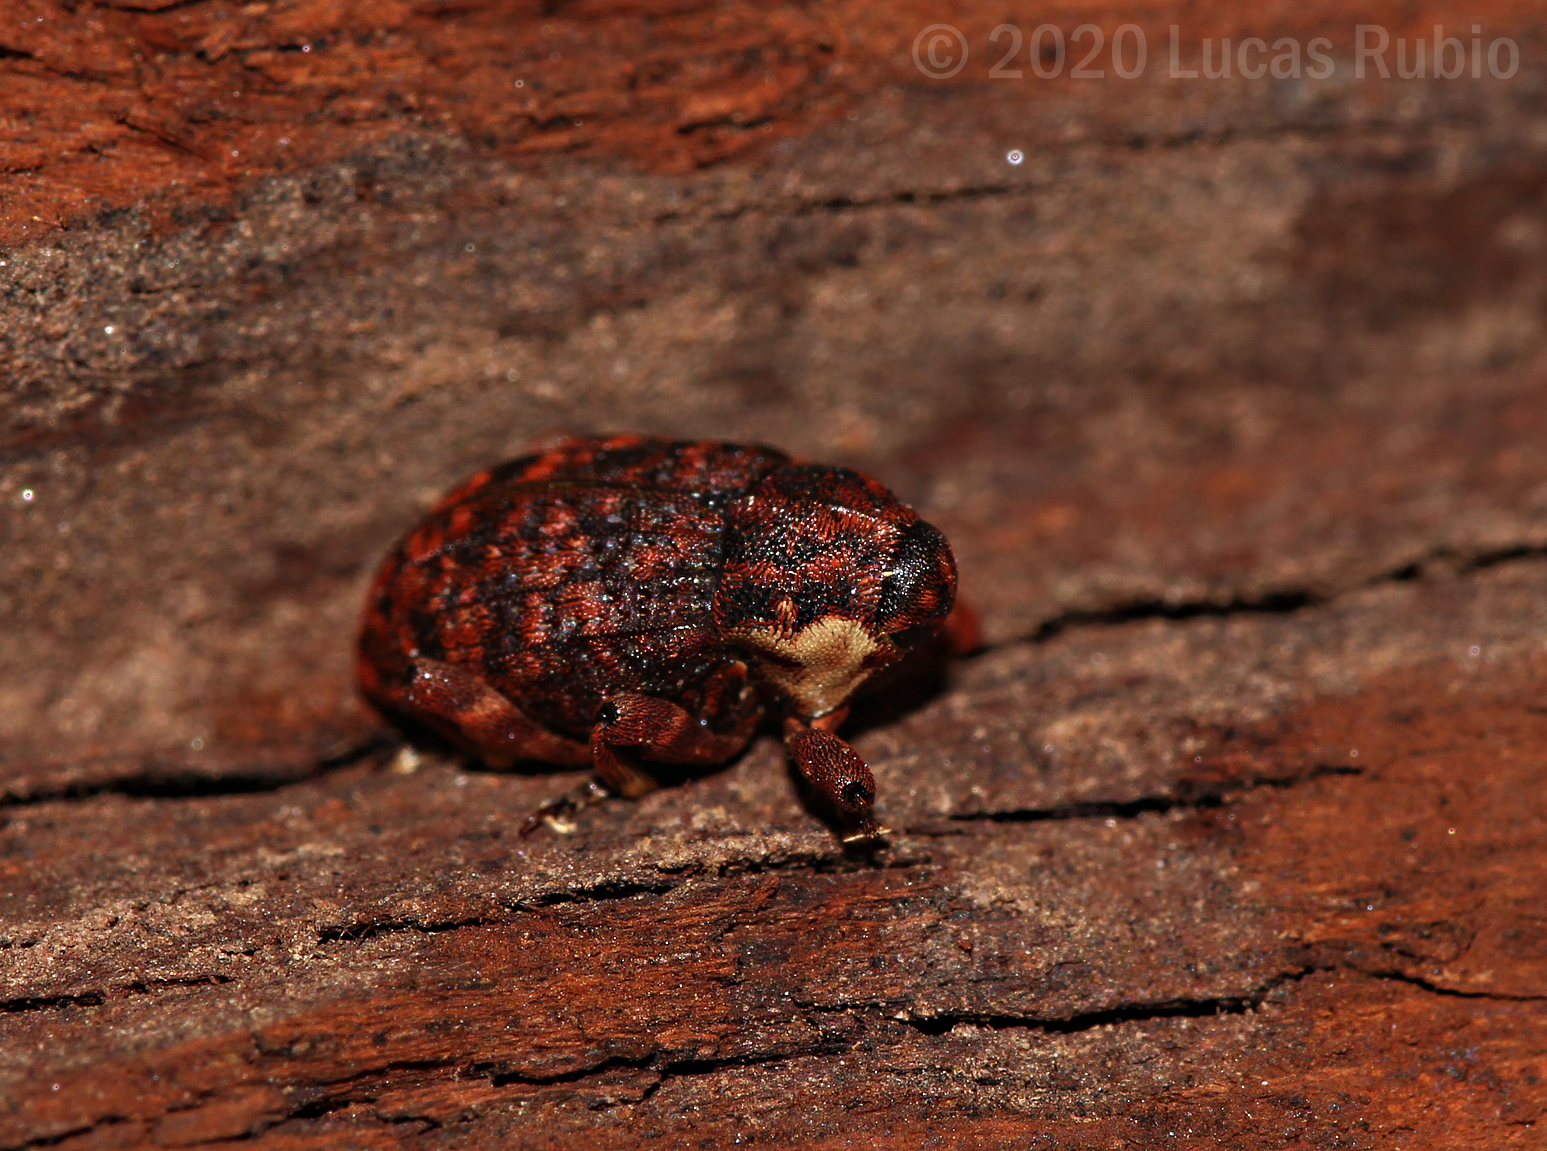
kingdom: Animalia
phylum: Arthropoda
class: Insecta
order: Coleoptera
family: Curculionidae
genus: Eubulus
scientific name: Eubulus miniatus
